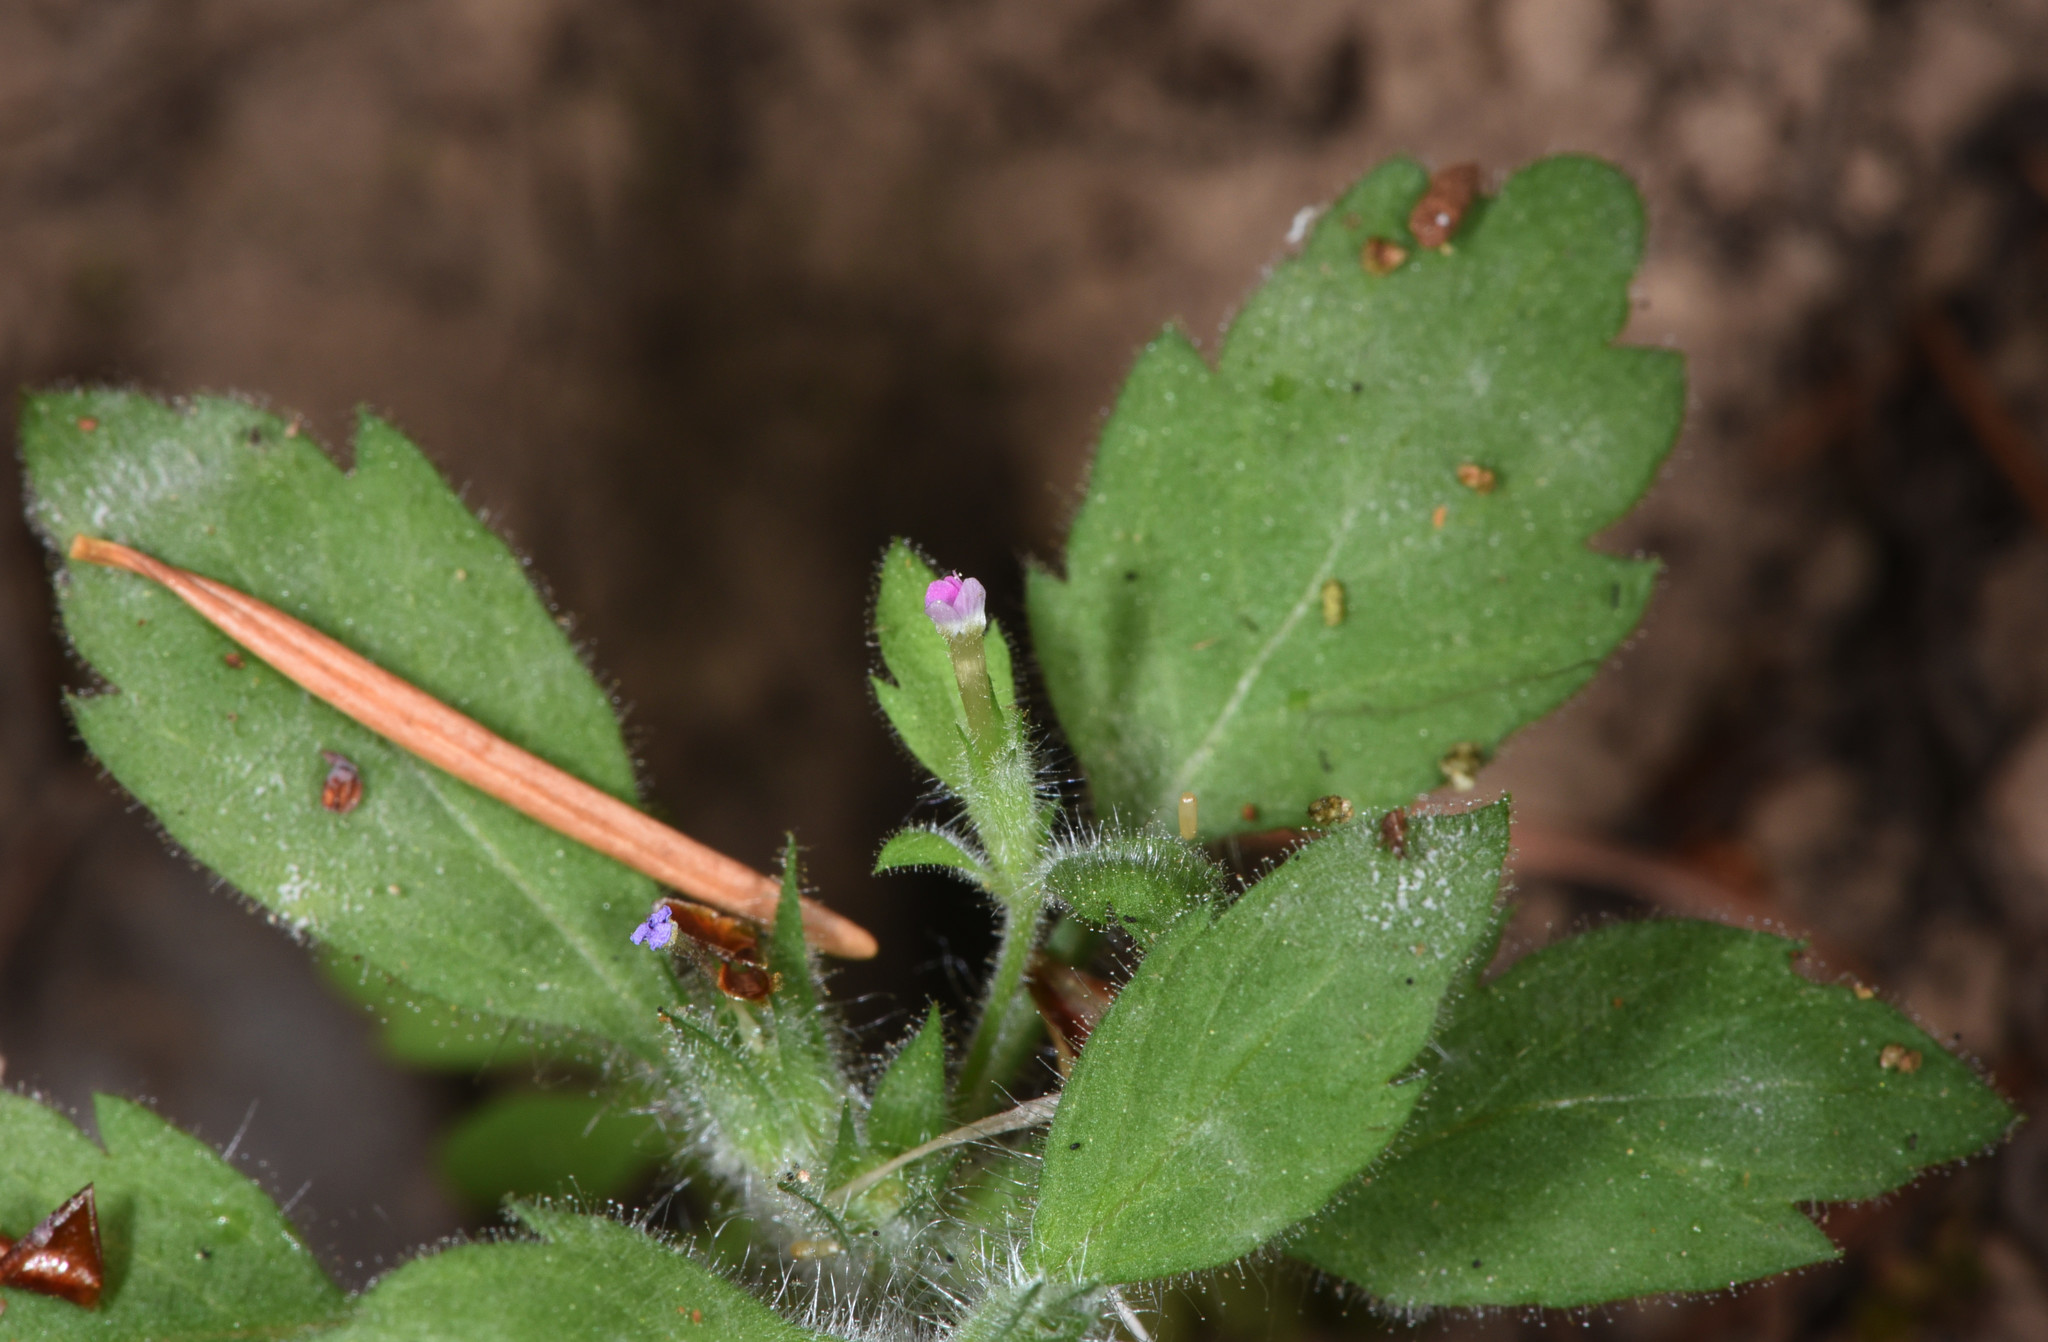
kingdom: Plantae
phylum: Tracheophyta
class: Magnoliopsida
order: Ericales
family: Polemoniaceae
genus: Collomia
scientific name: Collomia heterophylla
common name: Variable-leaved collomia
